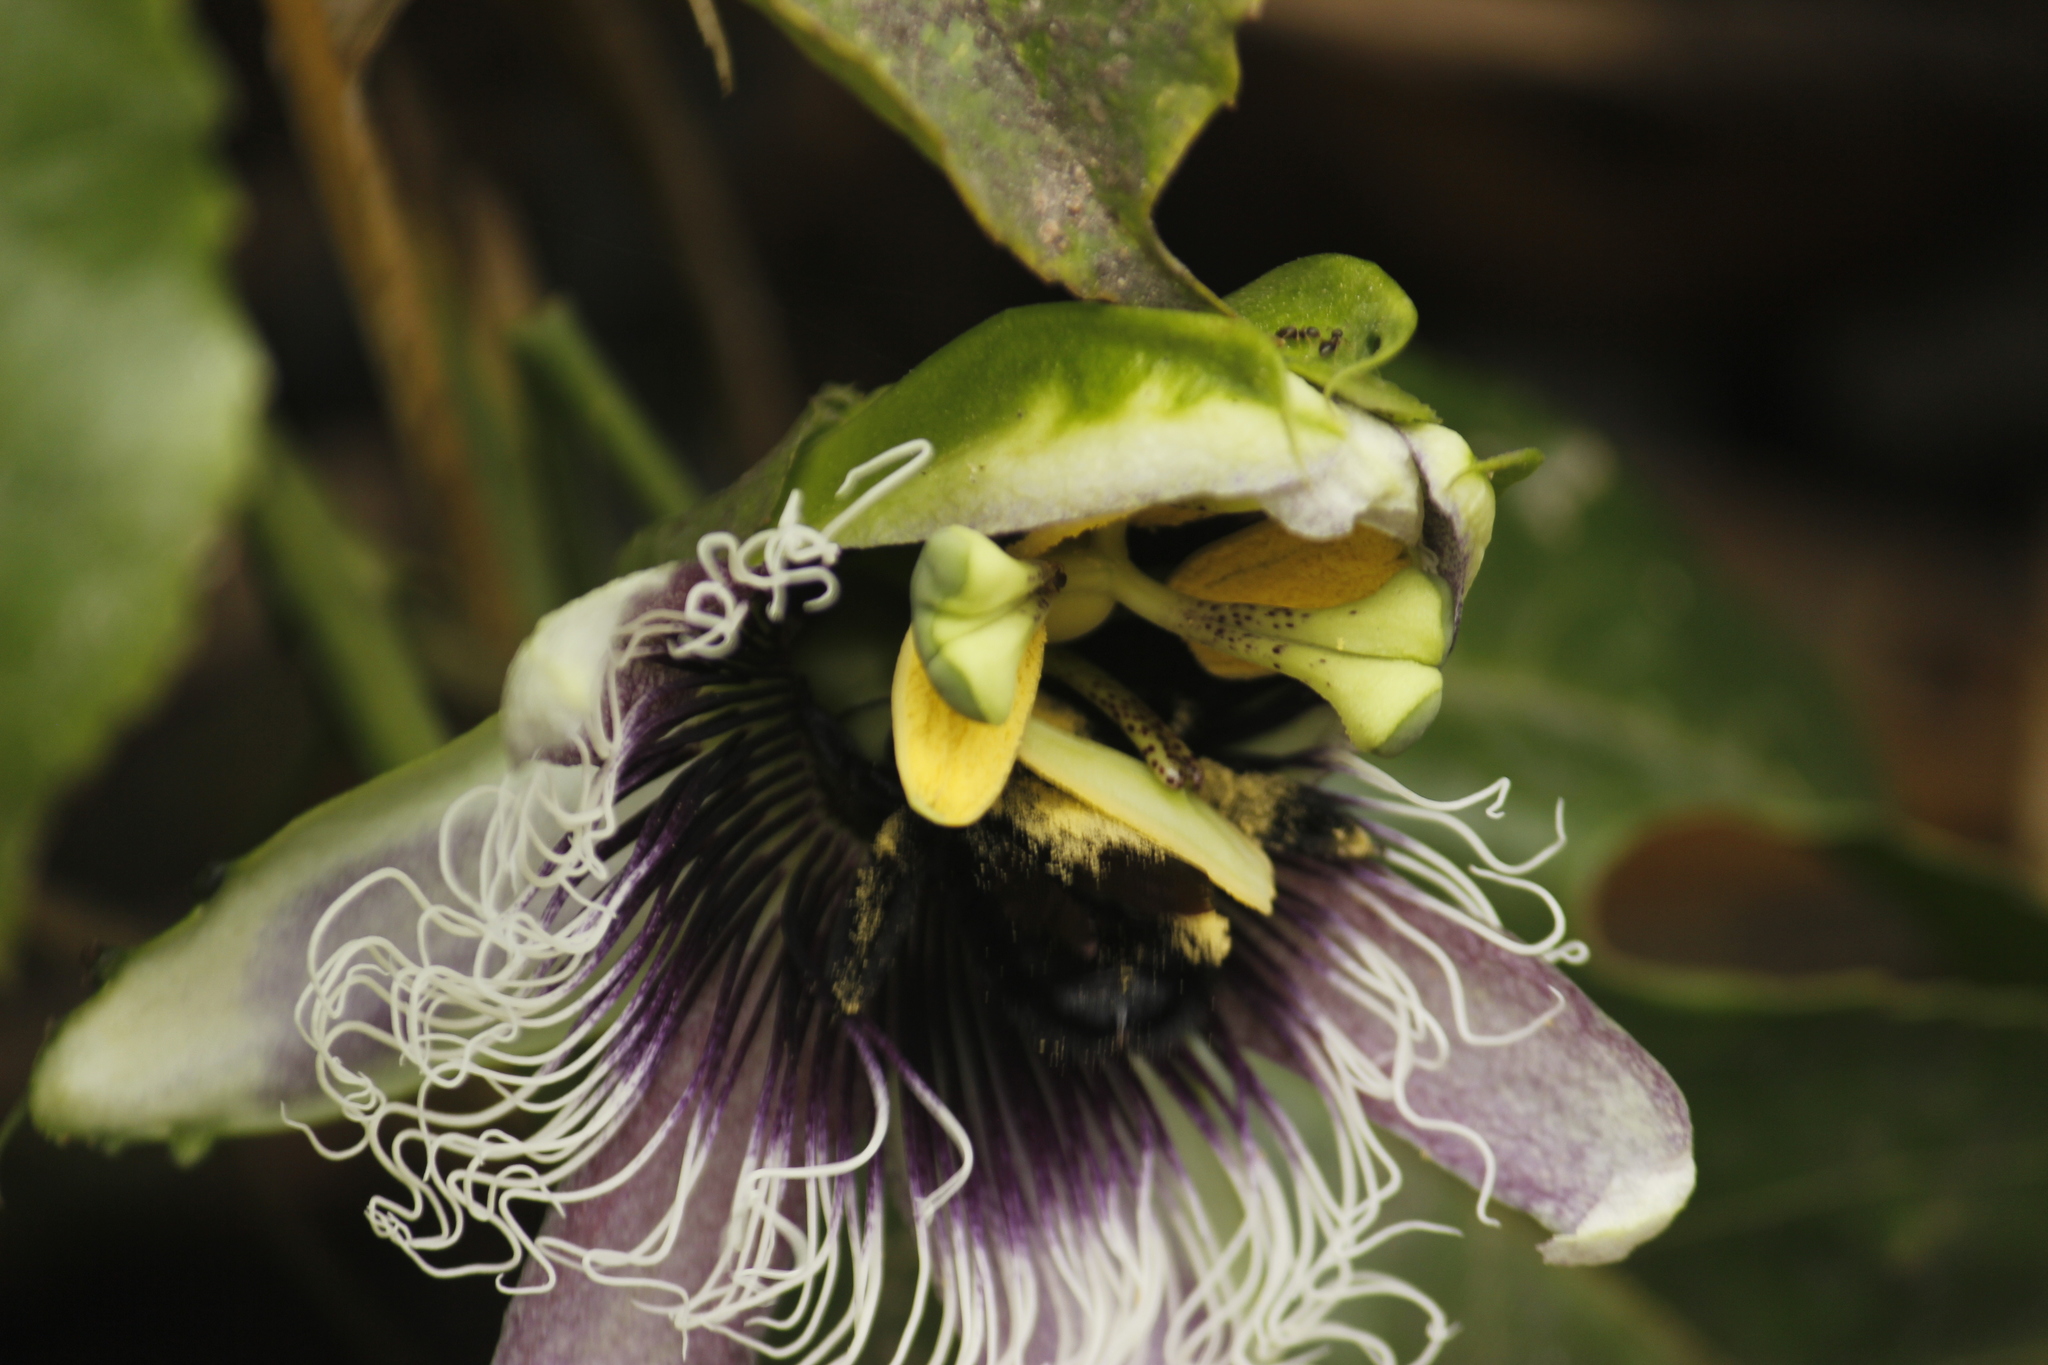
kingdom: Plantae
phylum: Tracheophyta
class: Magnoliopsida
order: Malpighiales
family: Passifloraceae
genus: Passiflora
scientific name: Passiflora edulis
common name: Purple granadilla
